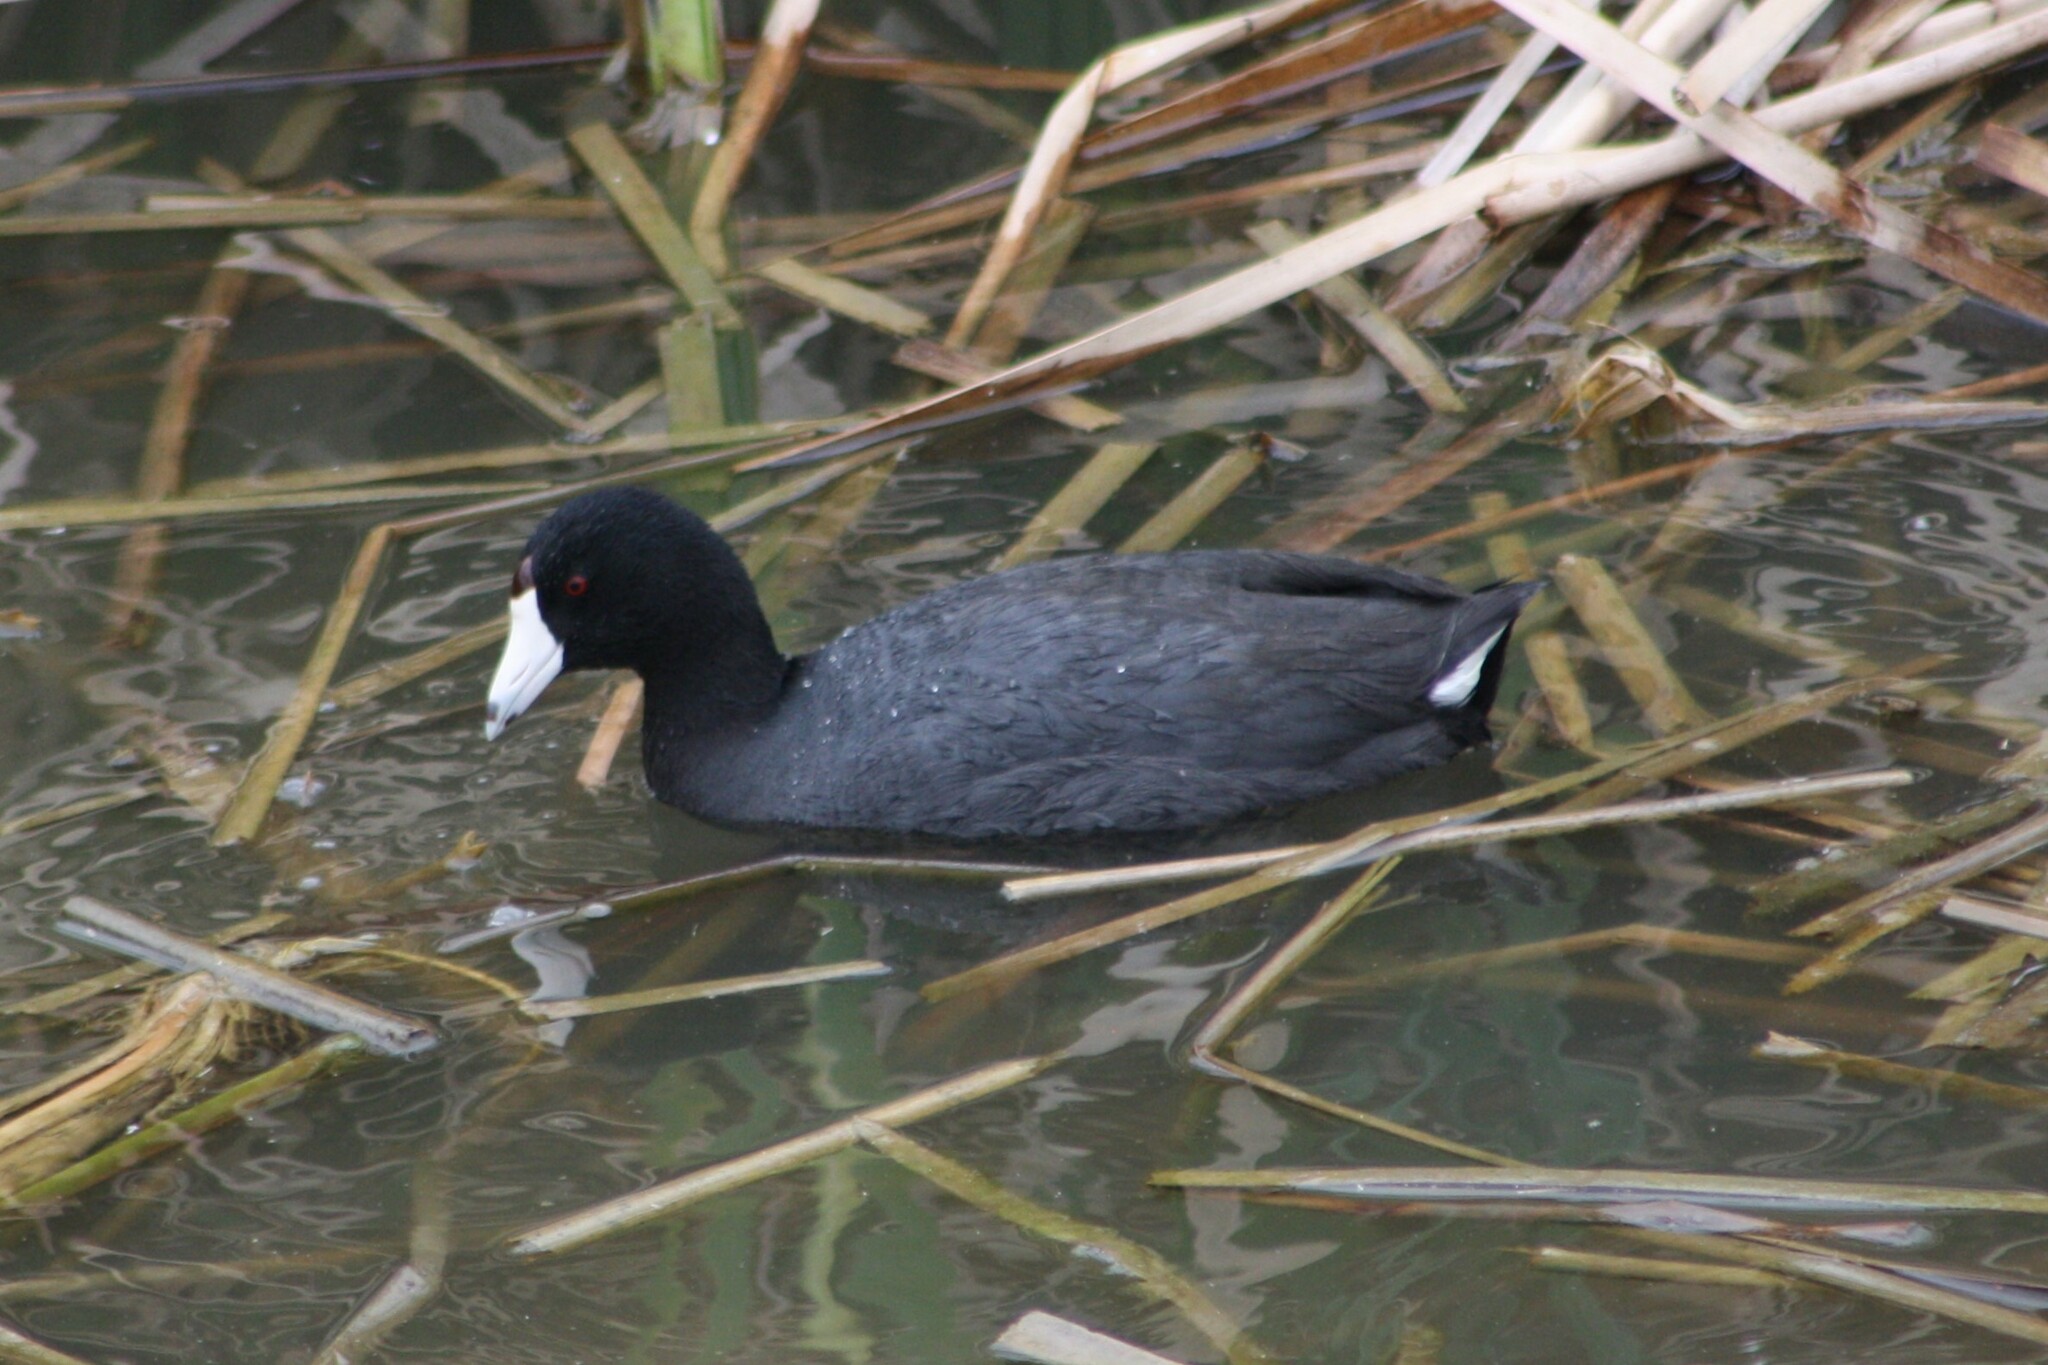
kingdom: Animalia
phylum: Chordata
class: Aves
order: Gruiformes
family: Rallidae
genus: Fulica
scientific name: Fulica americana
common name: American coot
